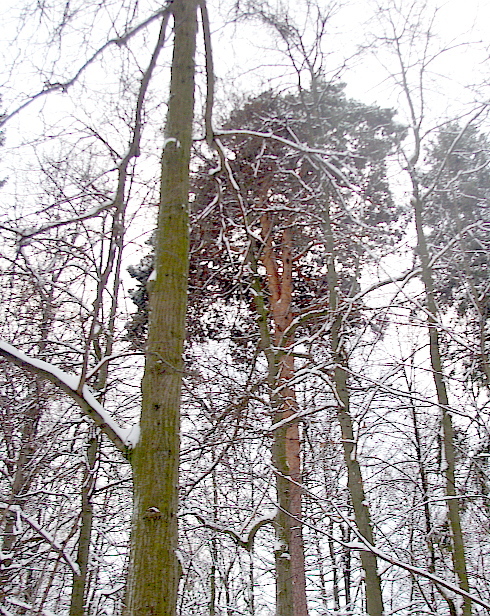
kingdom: Plantae
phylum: Tracheophyta
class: Pinopsida
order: Pinales
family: Pinaceae
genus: Pinus
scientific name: Pinus sylvestris
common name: Scots pine
